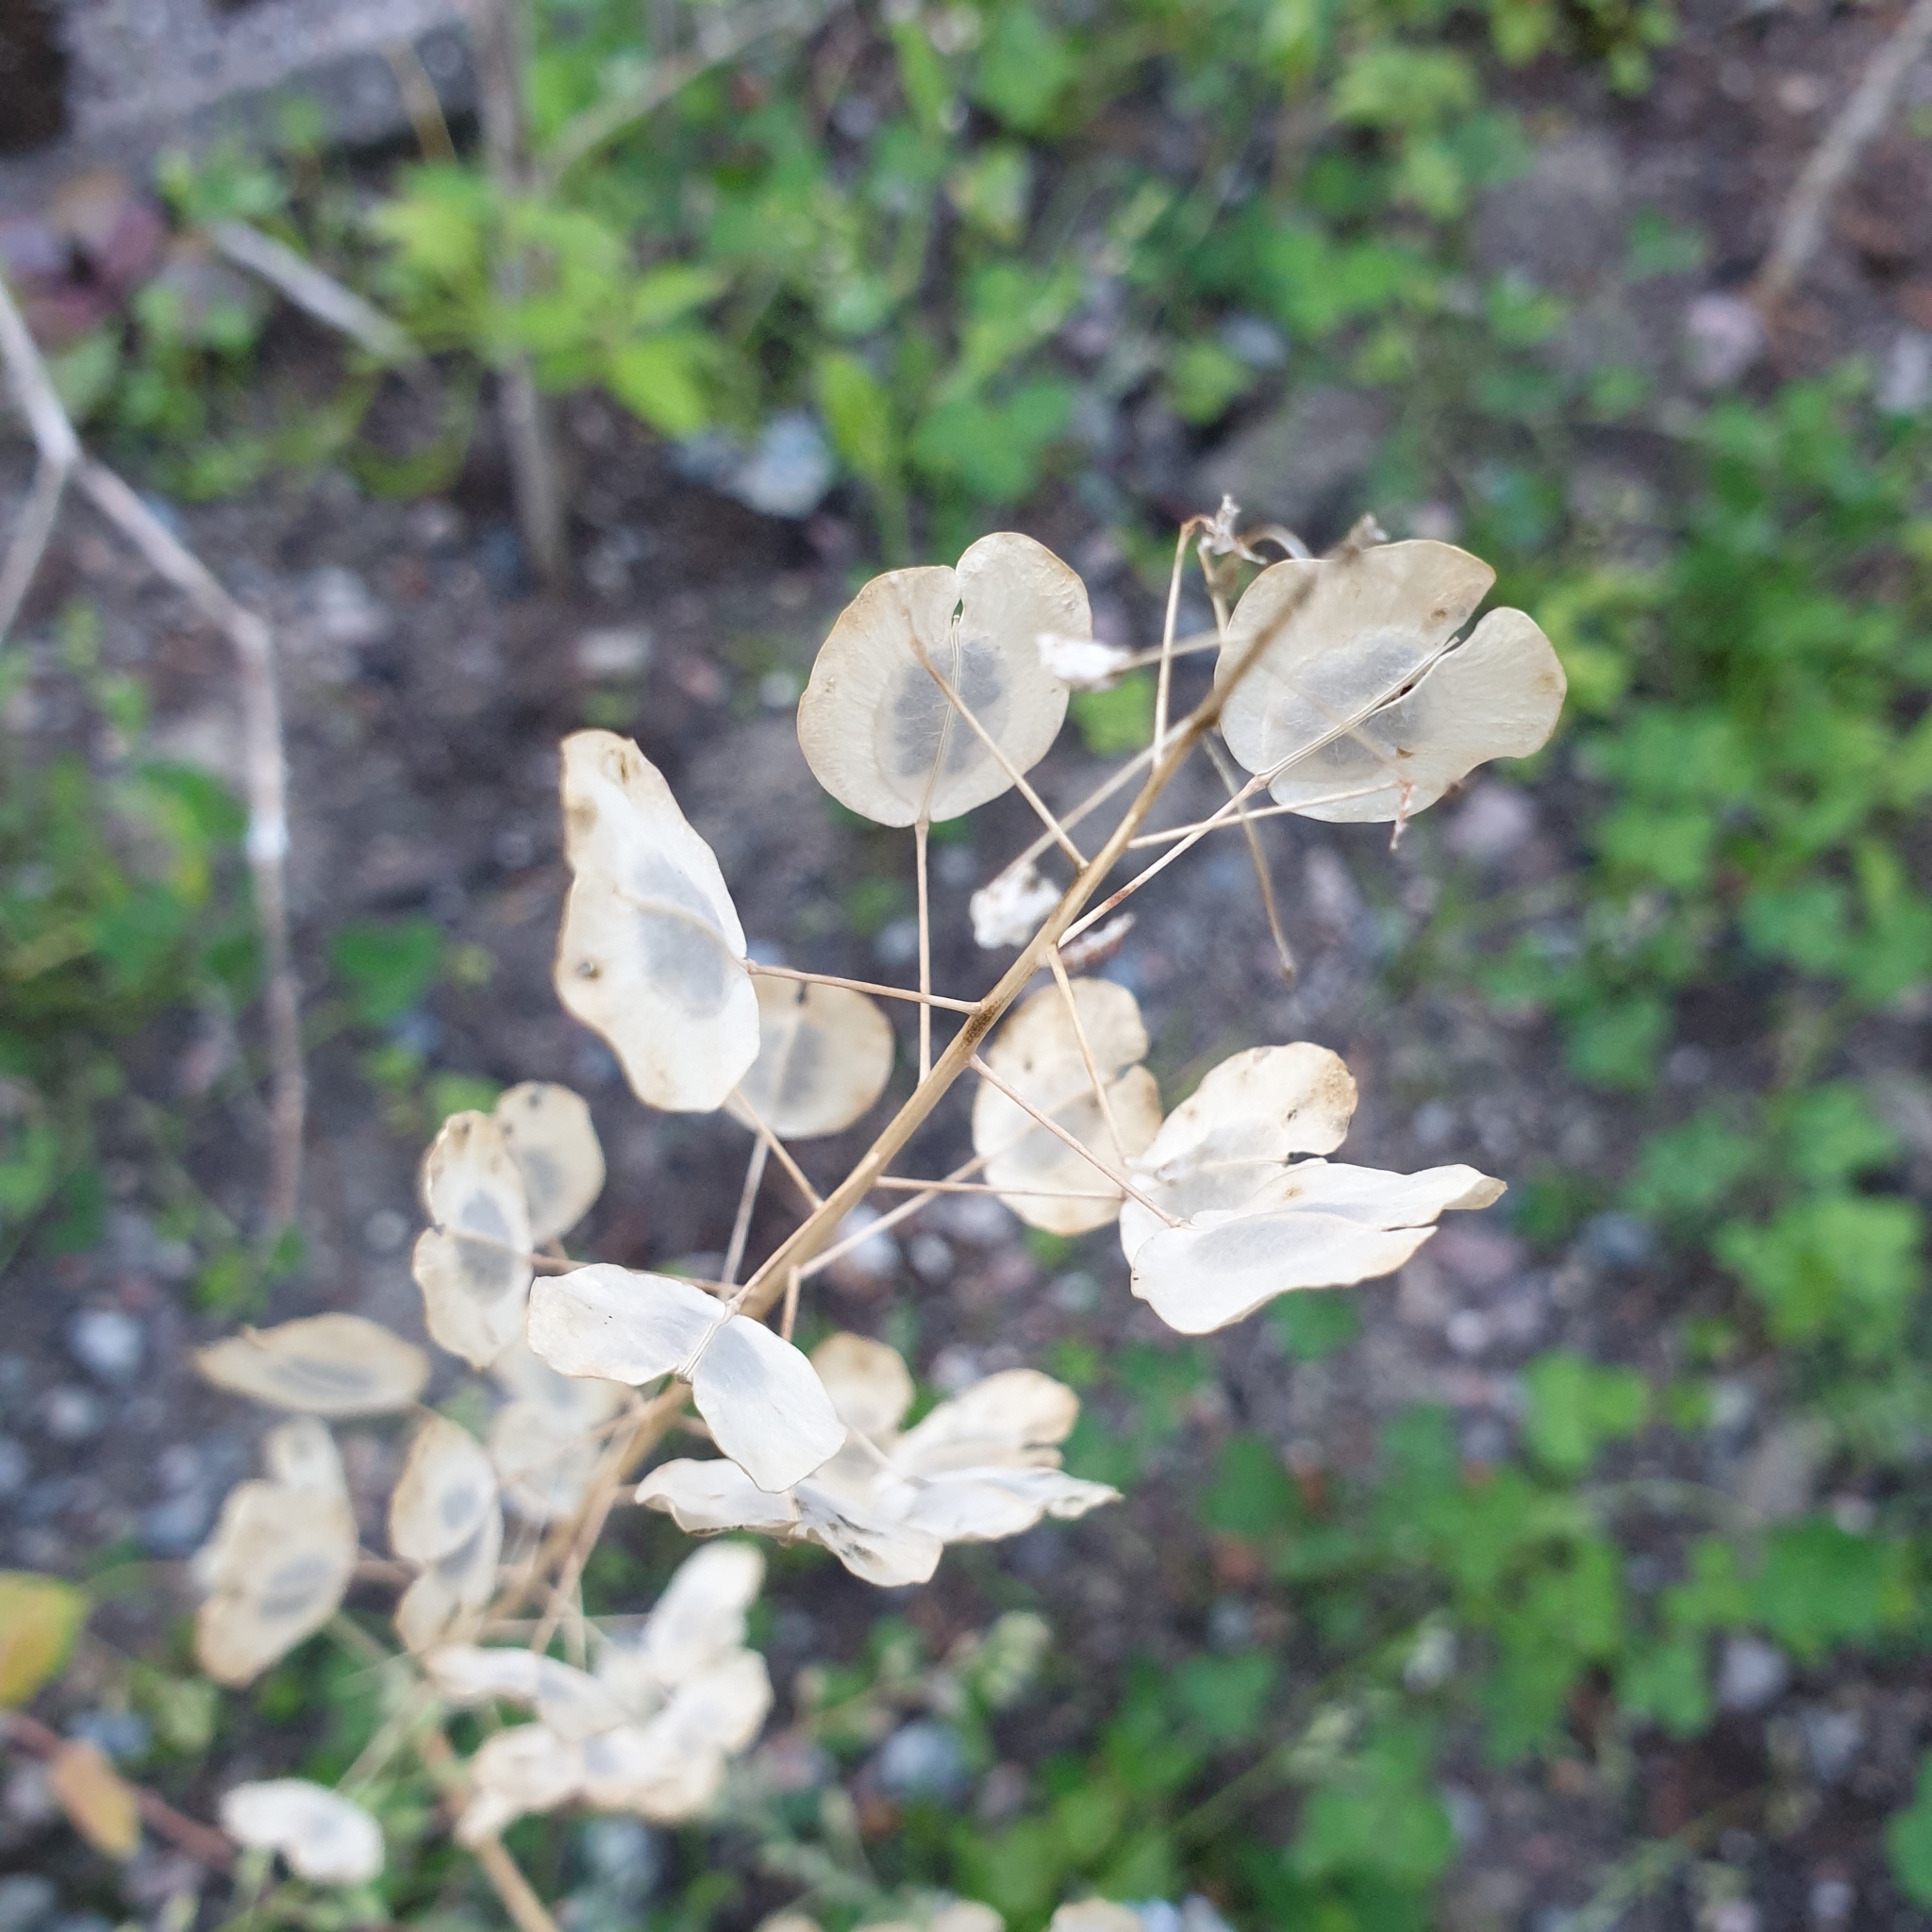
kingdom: Plantae
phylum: Tracheophyta
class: Magnoliopsida
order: Brassicales
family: Brassicaceae
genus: Thlaspi
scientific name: Thlaspi arvense
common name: Field pennycress
